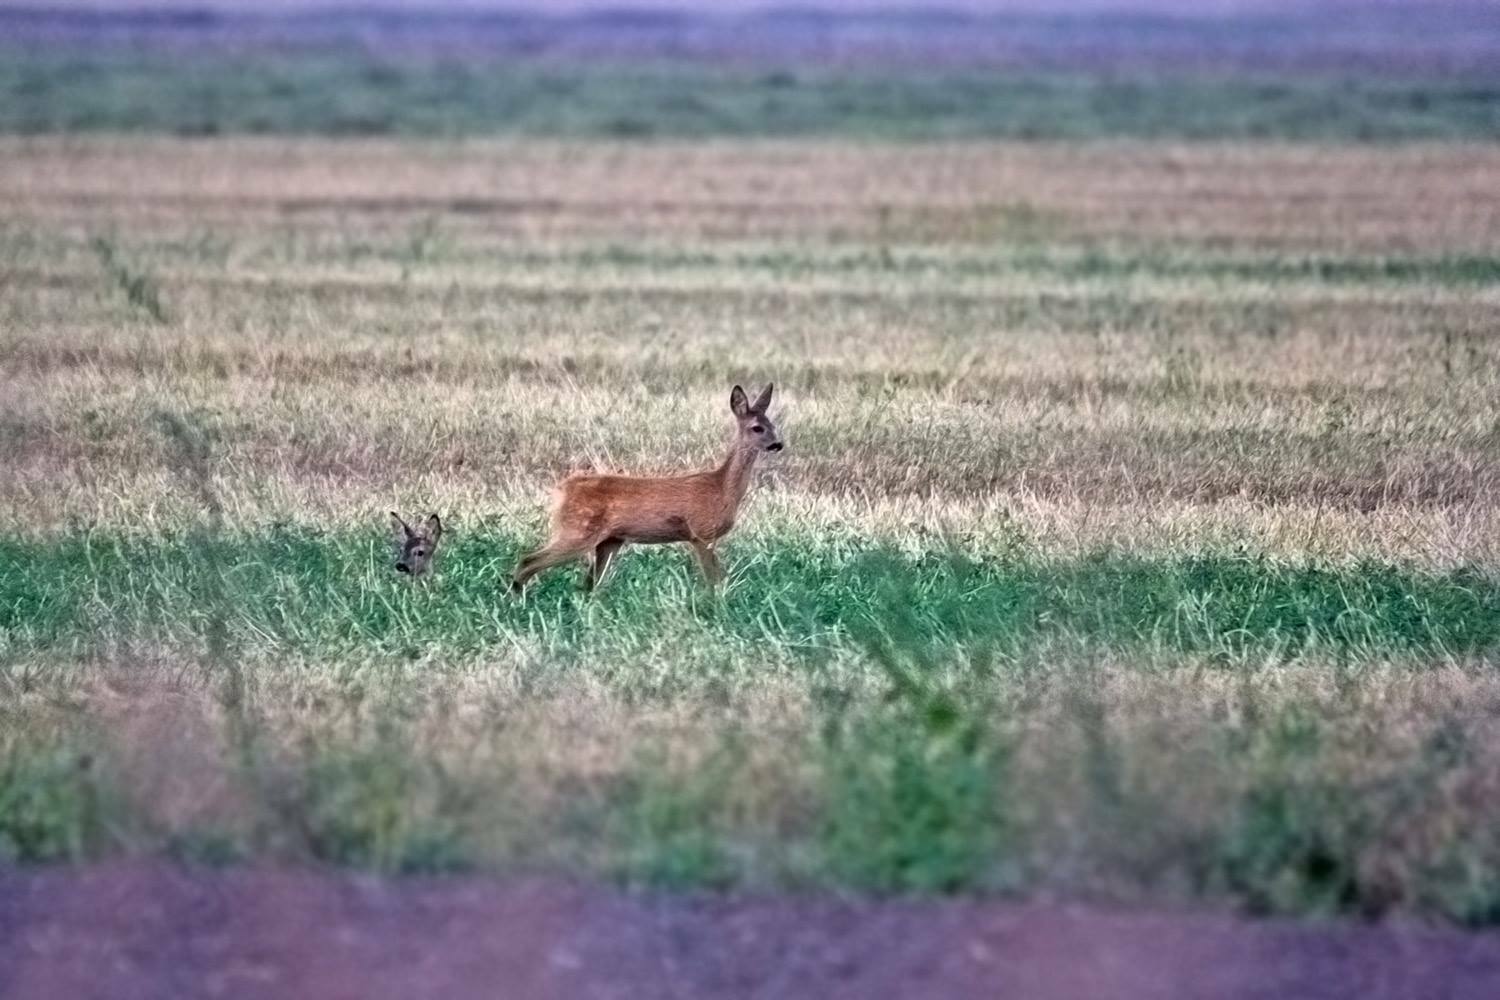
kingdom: Animalia
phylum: Chordata
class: Mammalia
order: Artiodactyla
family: Cervidae
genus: Capreolus
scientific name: Capreolus capreolus
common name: Western roe deer
